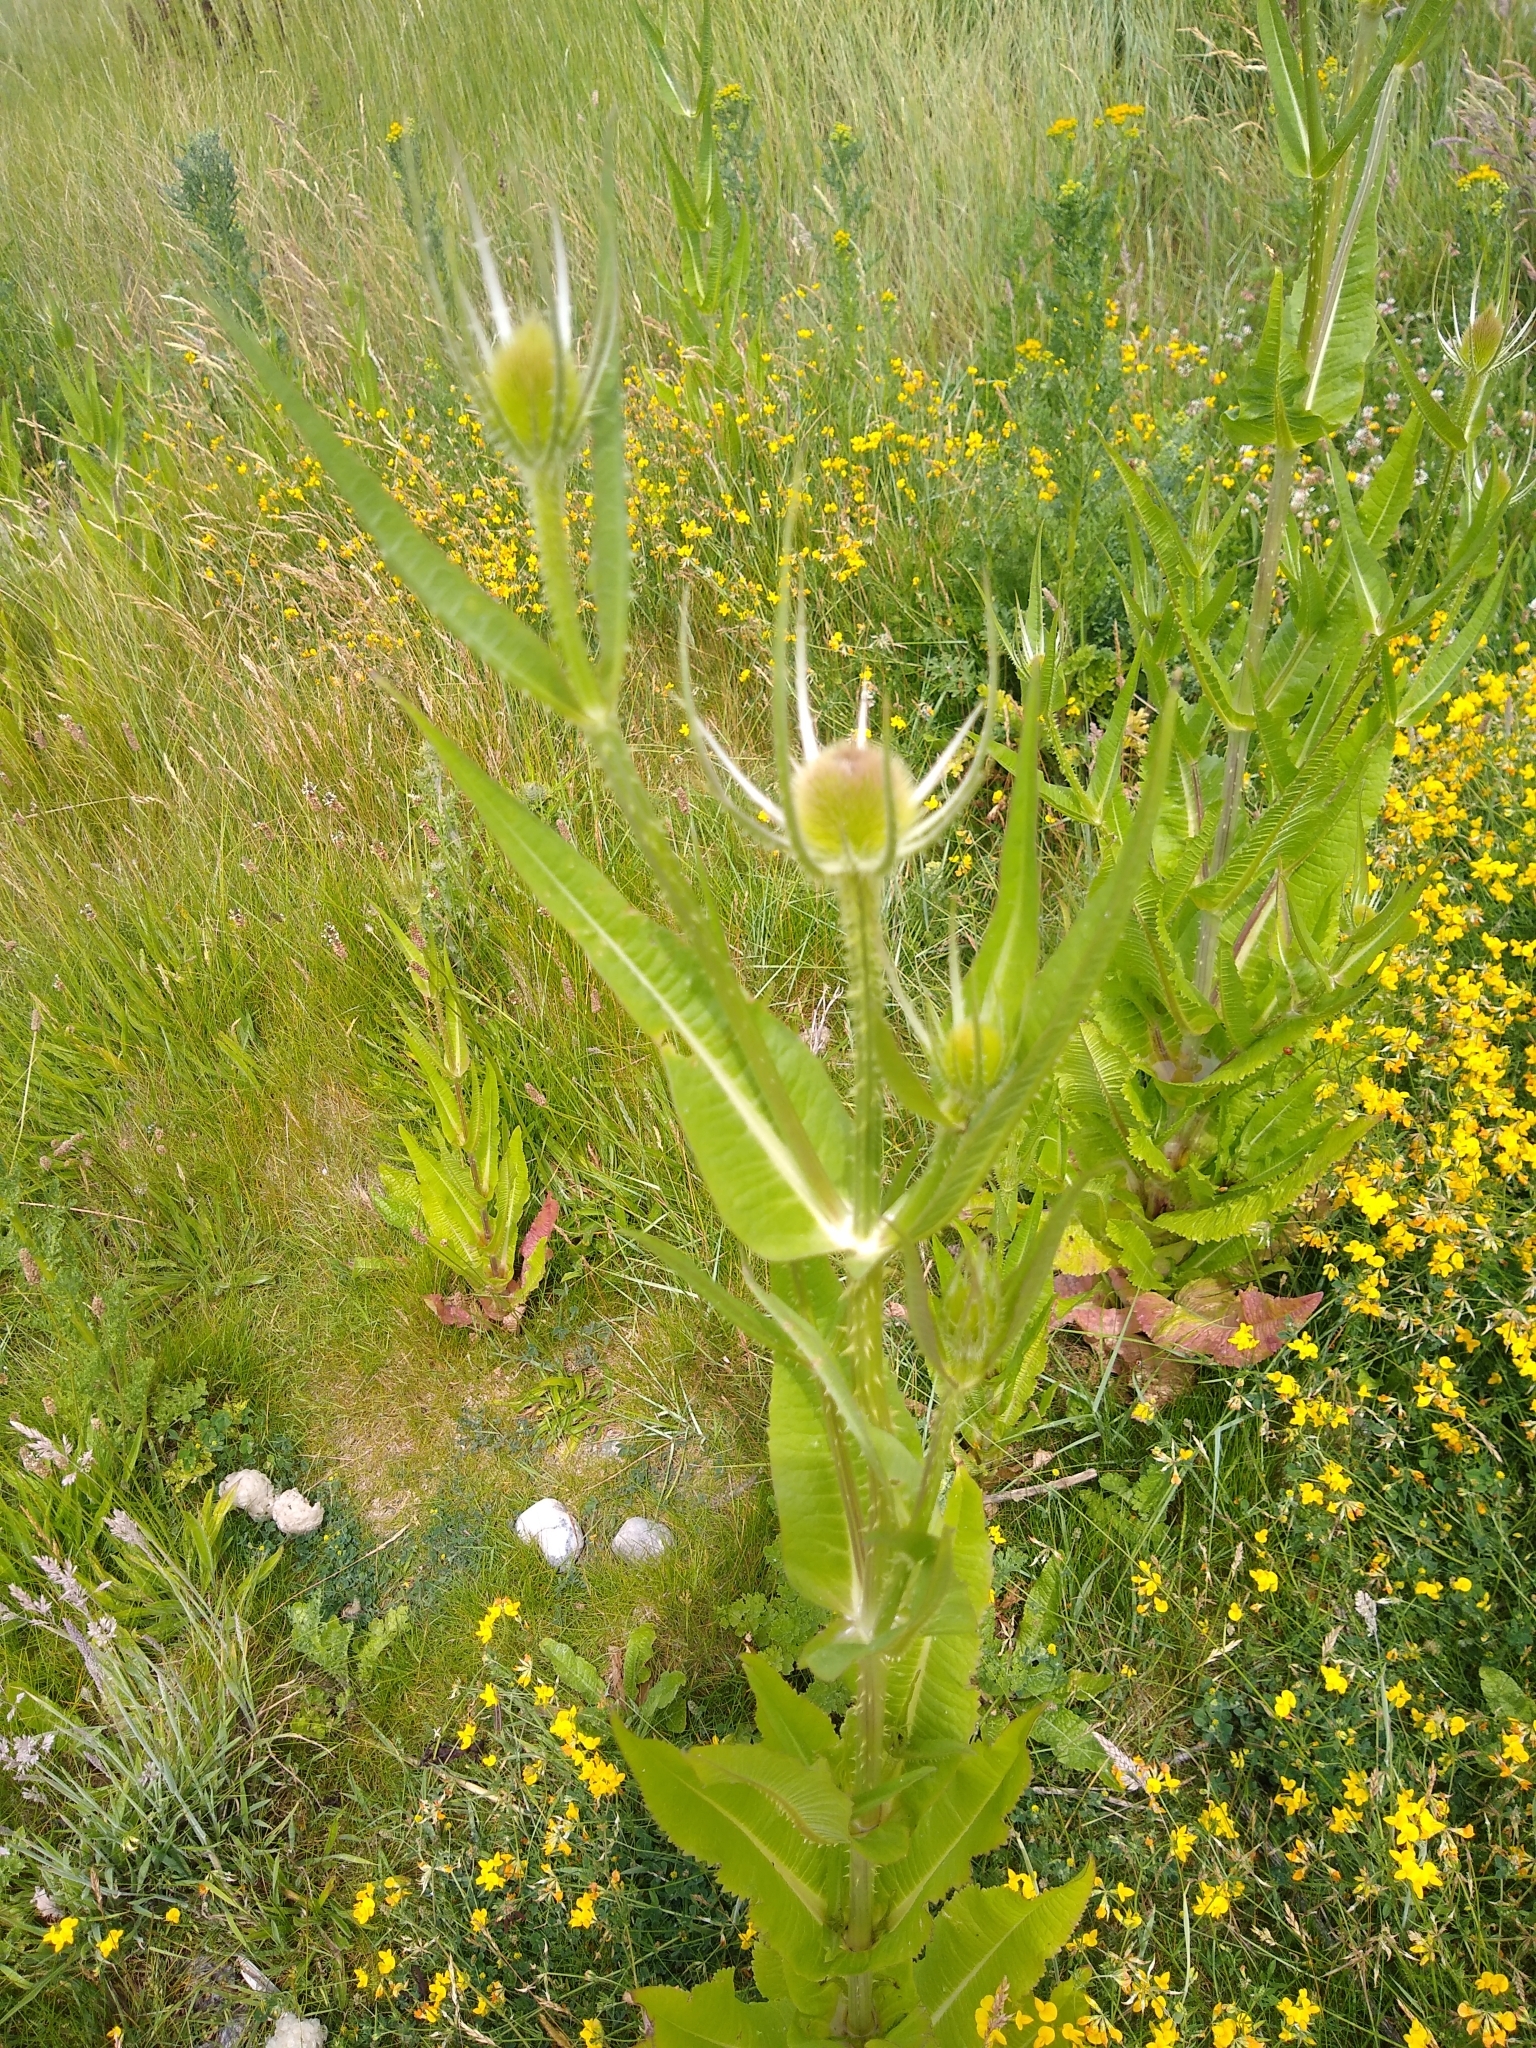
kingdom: Plantae
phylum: Tracheophyta
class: Magnoliopsida
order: Dipsacales
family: Caprifoliaceae
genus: Dipsacus
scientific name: Dipsacus fullonum
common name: Teasel
